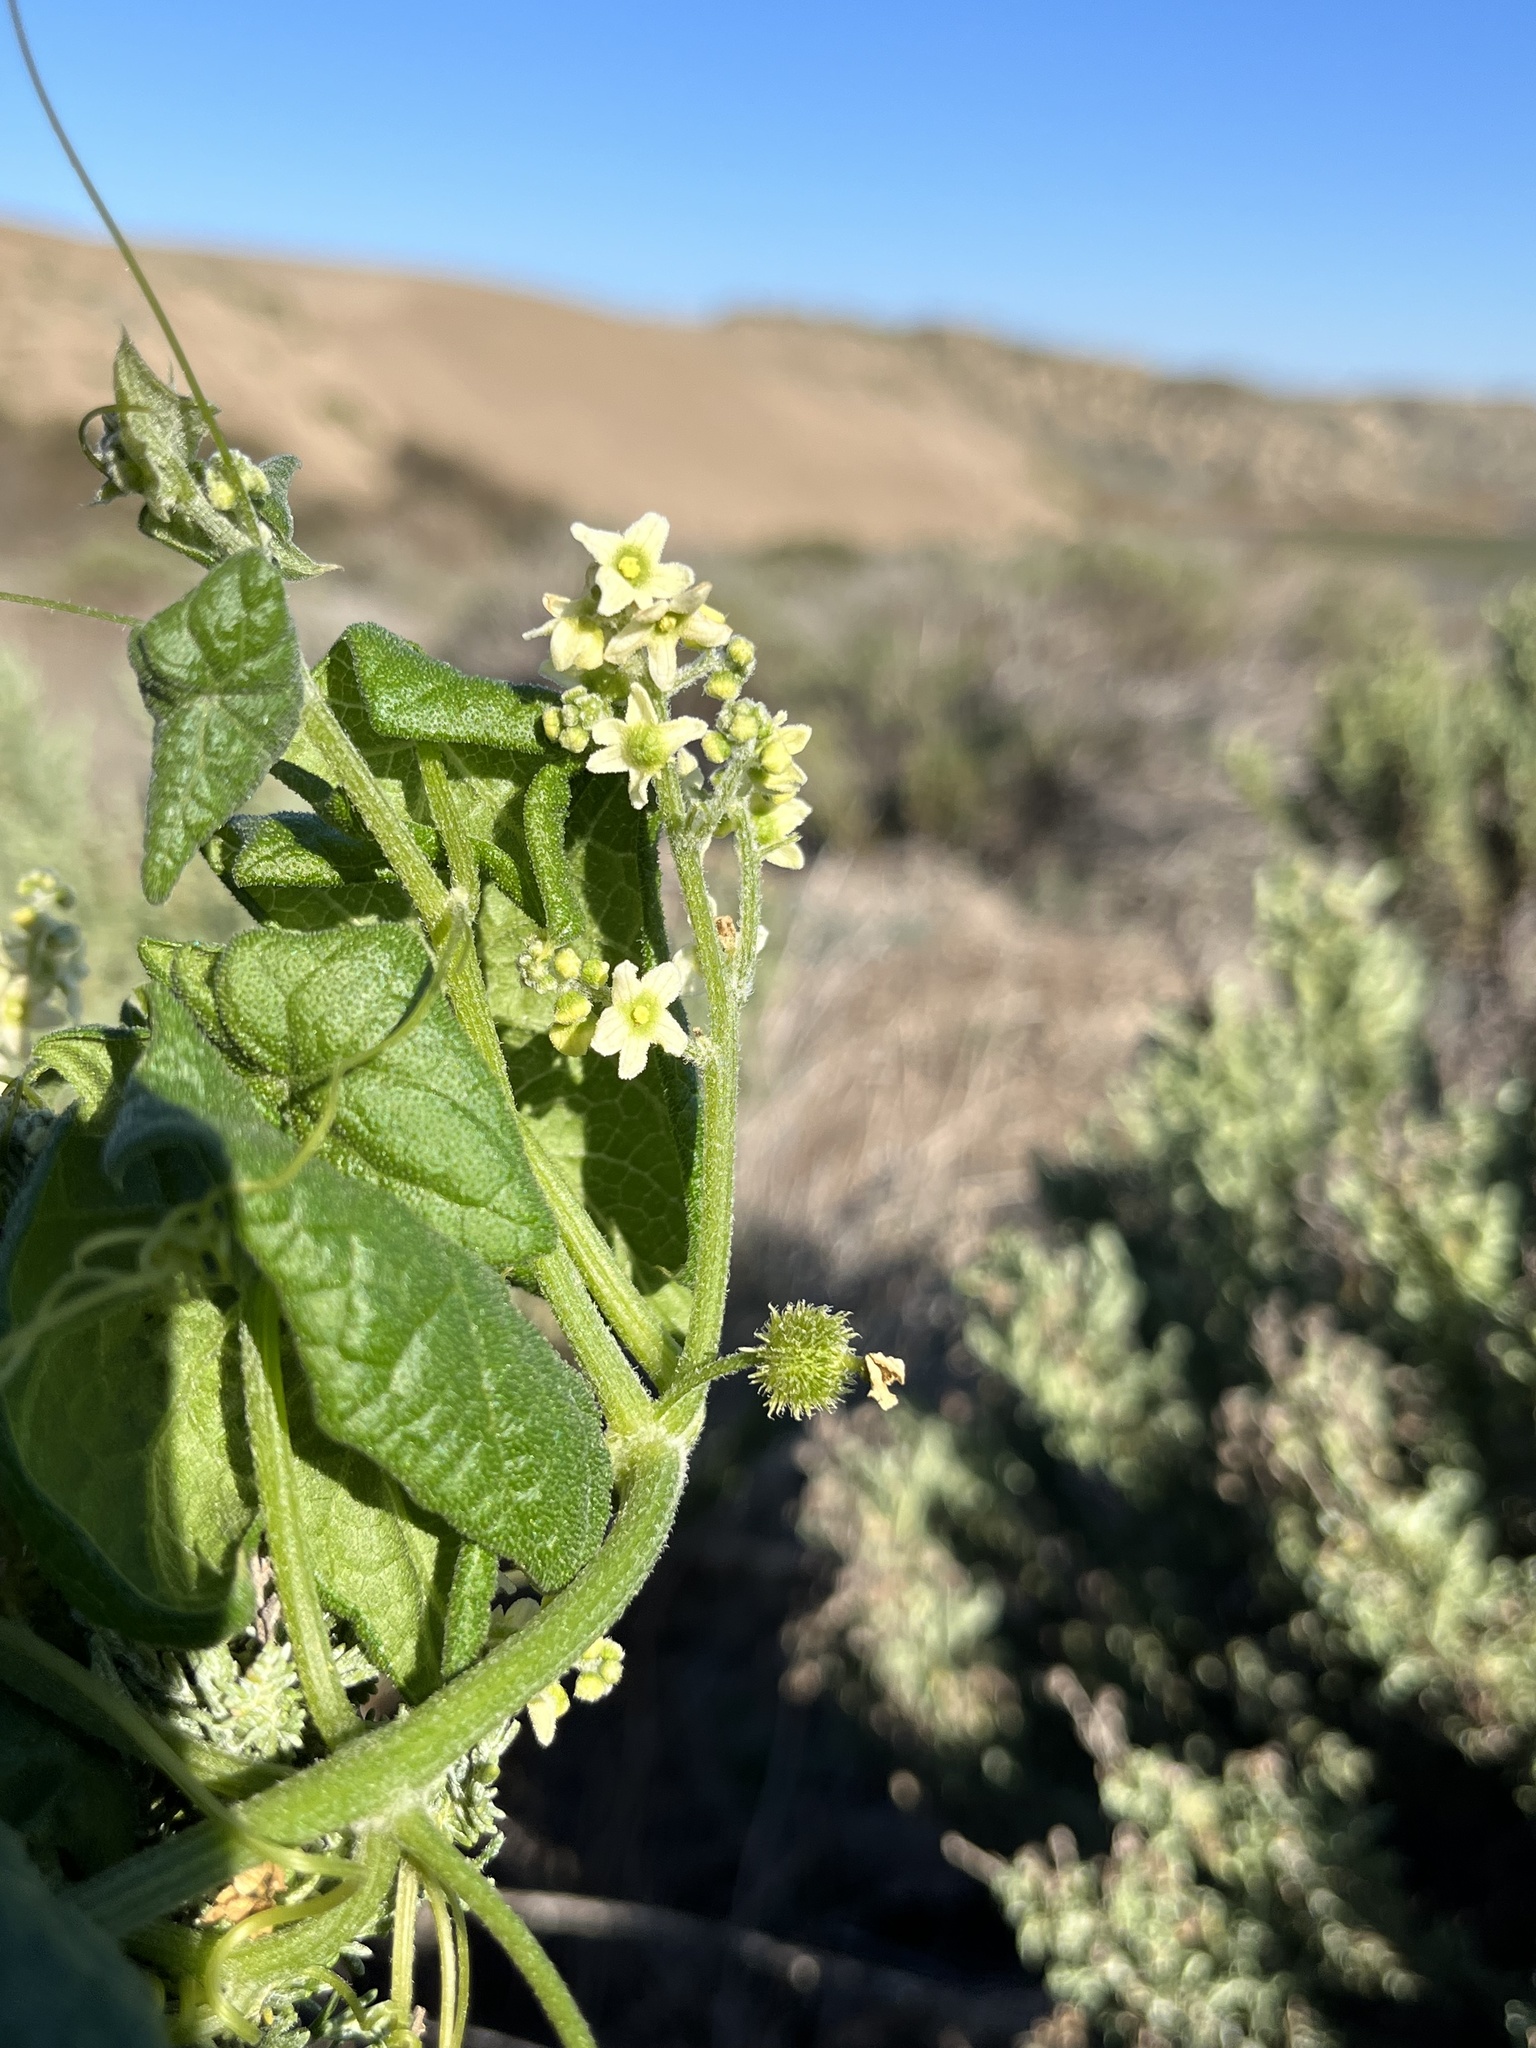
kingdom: Plantae
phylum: Tracheophyta
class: Magnoliopsida
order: Cucurbitales
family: Cucurbitaceae
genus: Marah
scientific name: Marah fabacea
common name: California manroot
